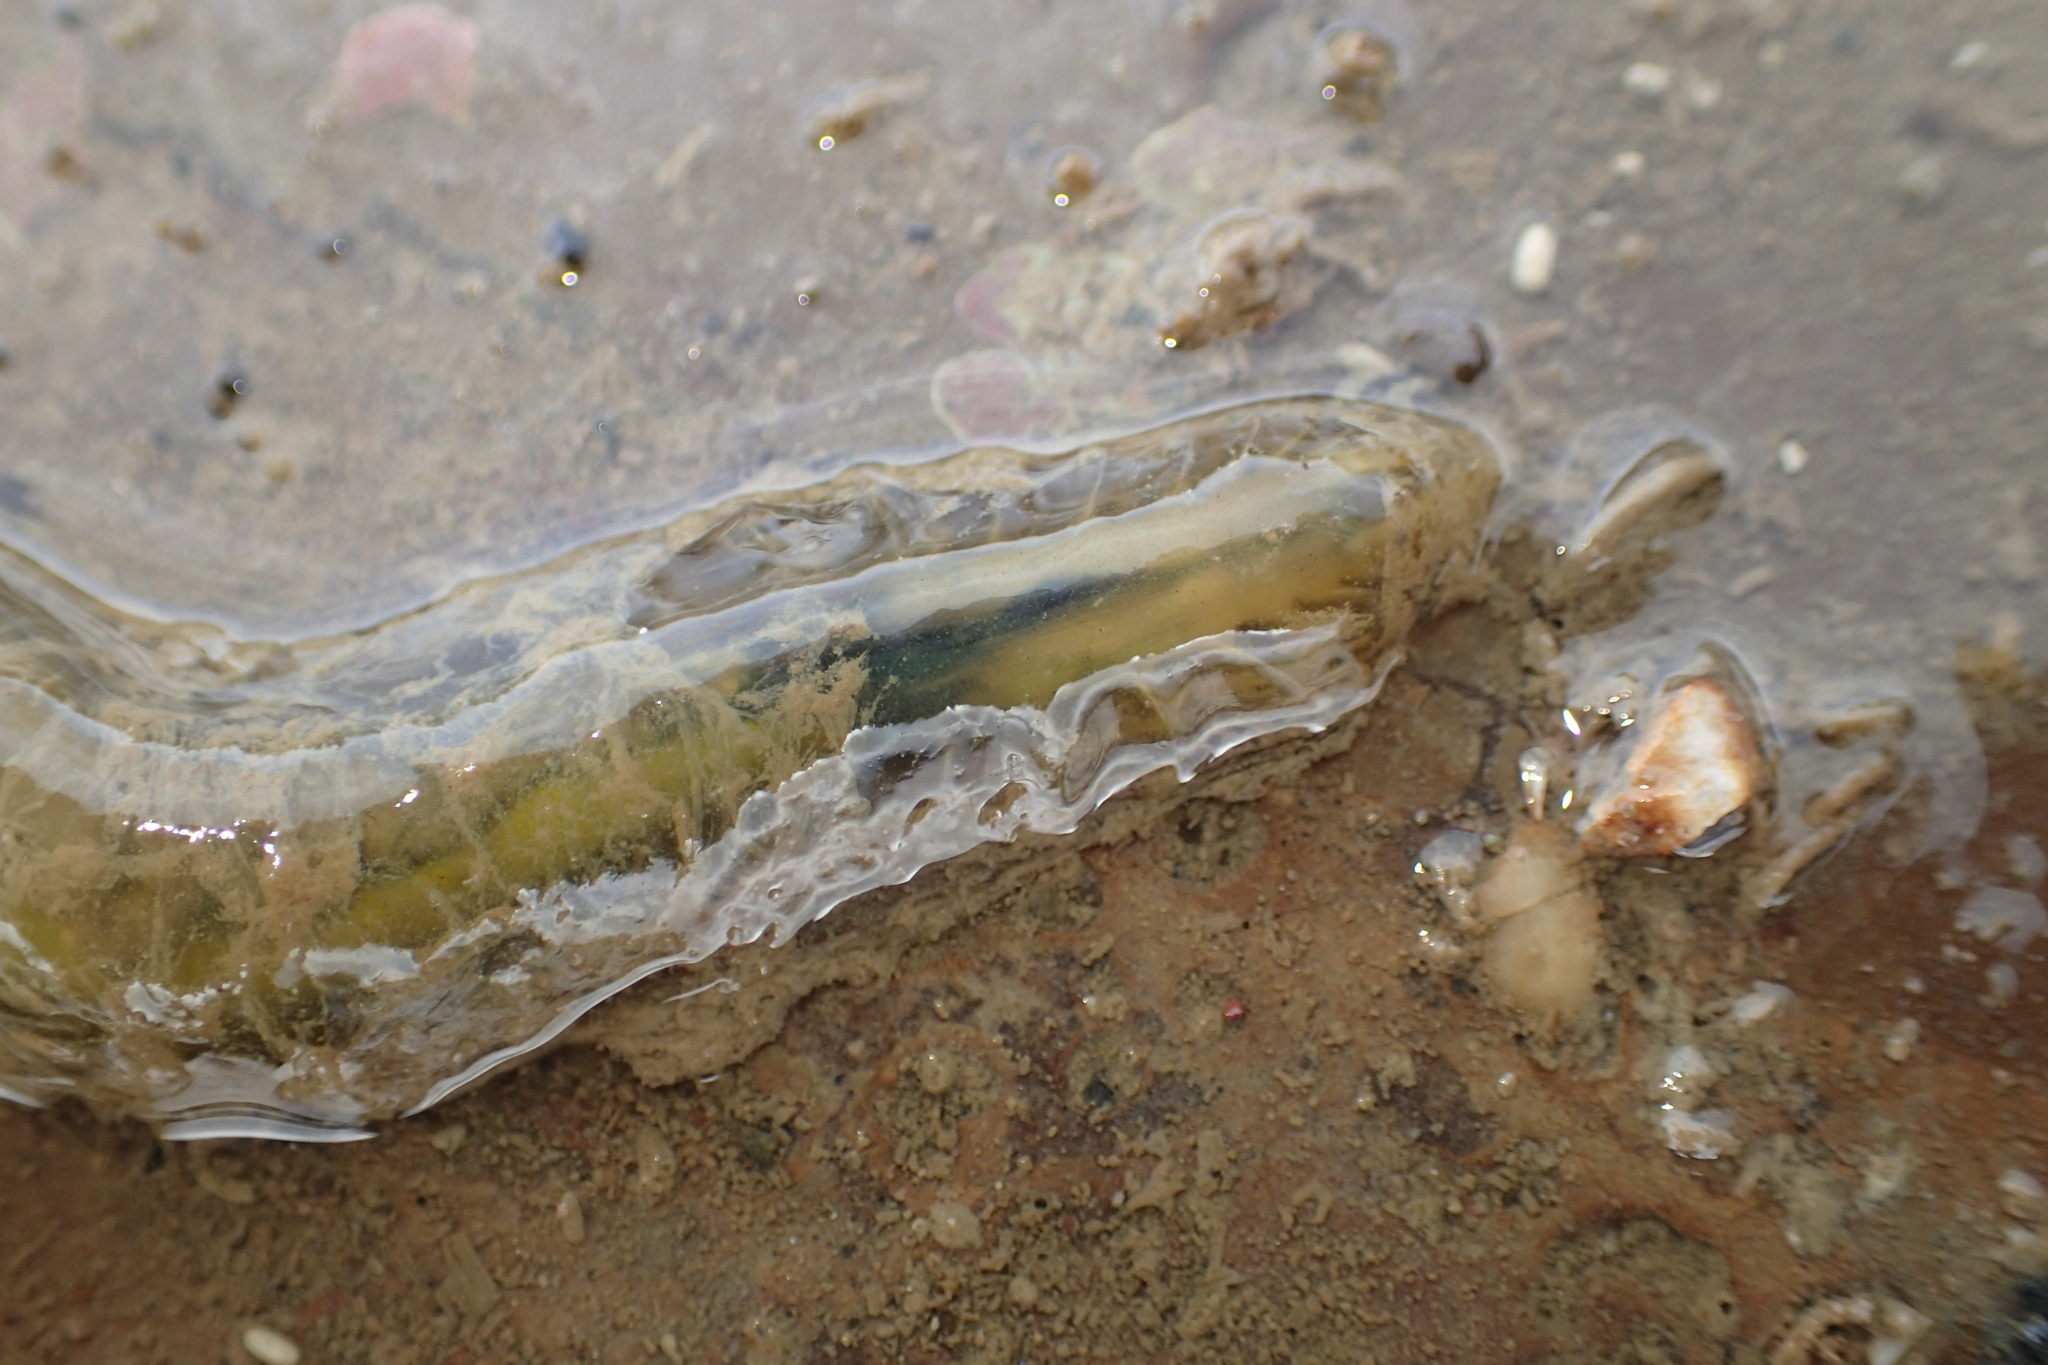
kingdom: Animalia
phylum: Annelida
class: Polychaeta
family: Flabelligeridae
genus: Flabelligera
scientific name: Flabelligera bicolor
